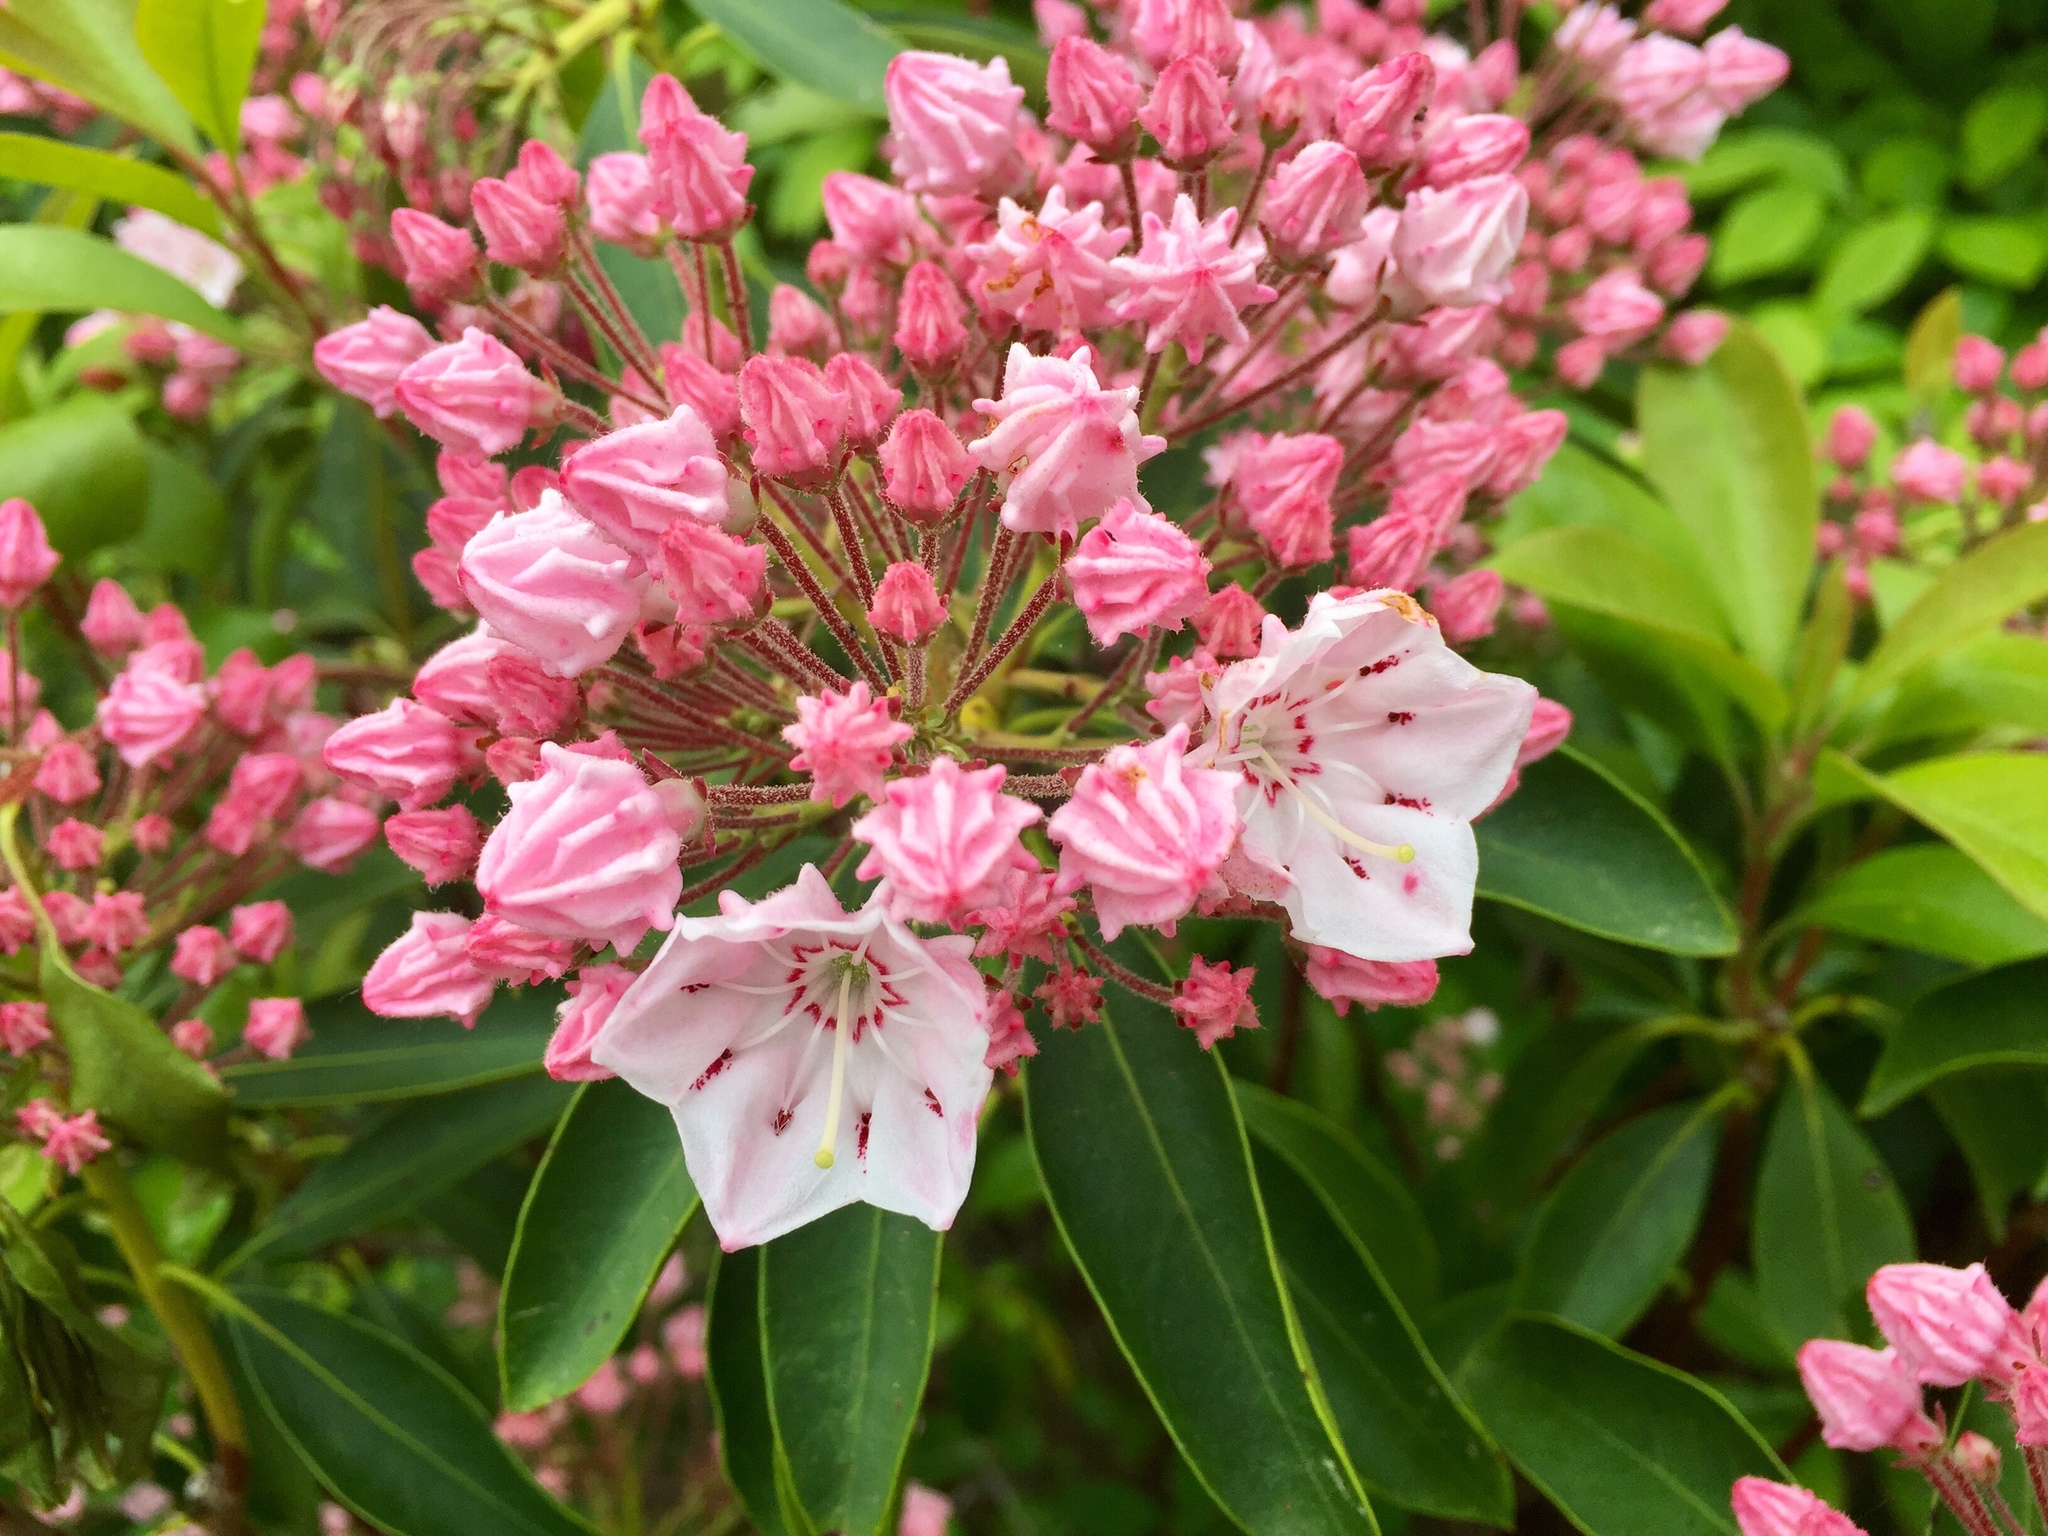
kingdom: Plantae
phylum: Tracheophyta
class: Magnoliopsida
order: Ericales
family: Ericaceae
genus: Kalmia
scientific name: Kalmia latifolia
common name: Mountain-laurel
